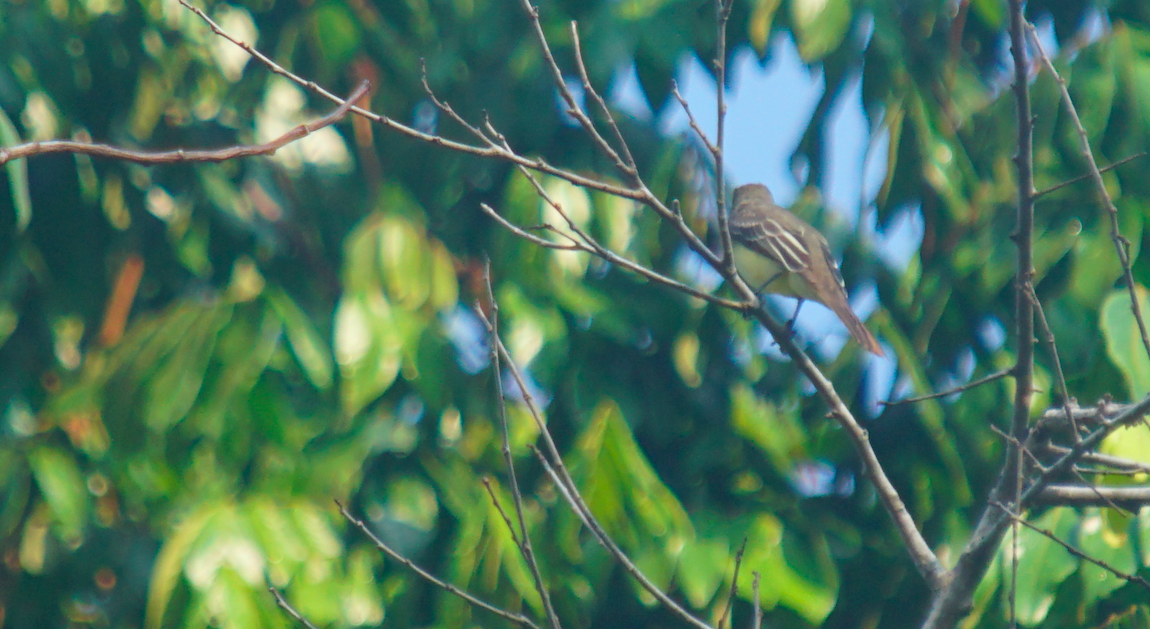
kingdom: Animalia
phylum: Chordata
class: Aves
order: Passeriformes
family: Tyrannidae
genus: Myiarchus
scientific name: Myiarchus crinitus
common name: Great crested flycatcher
